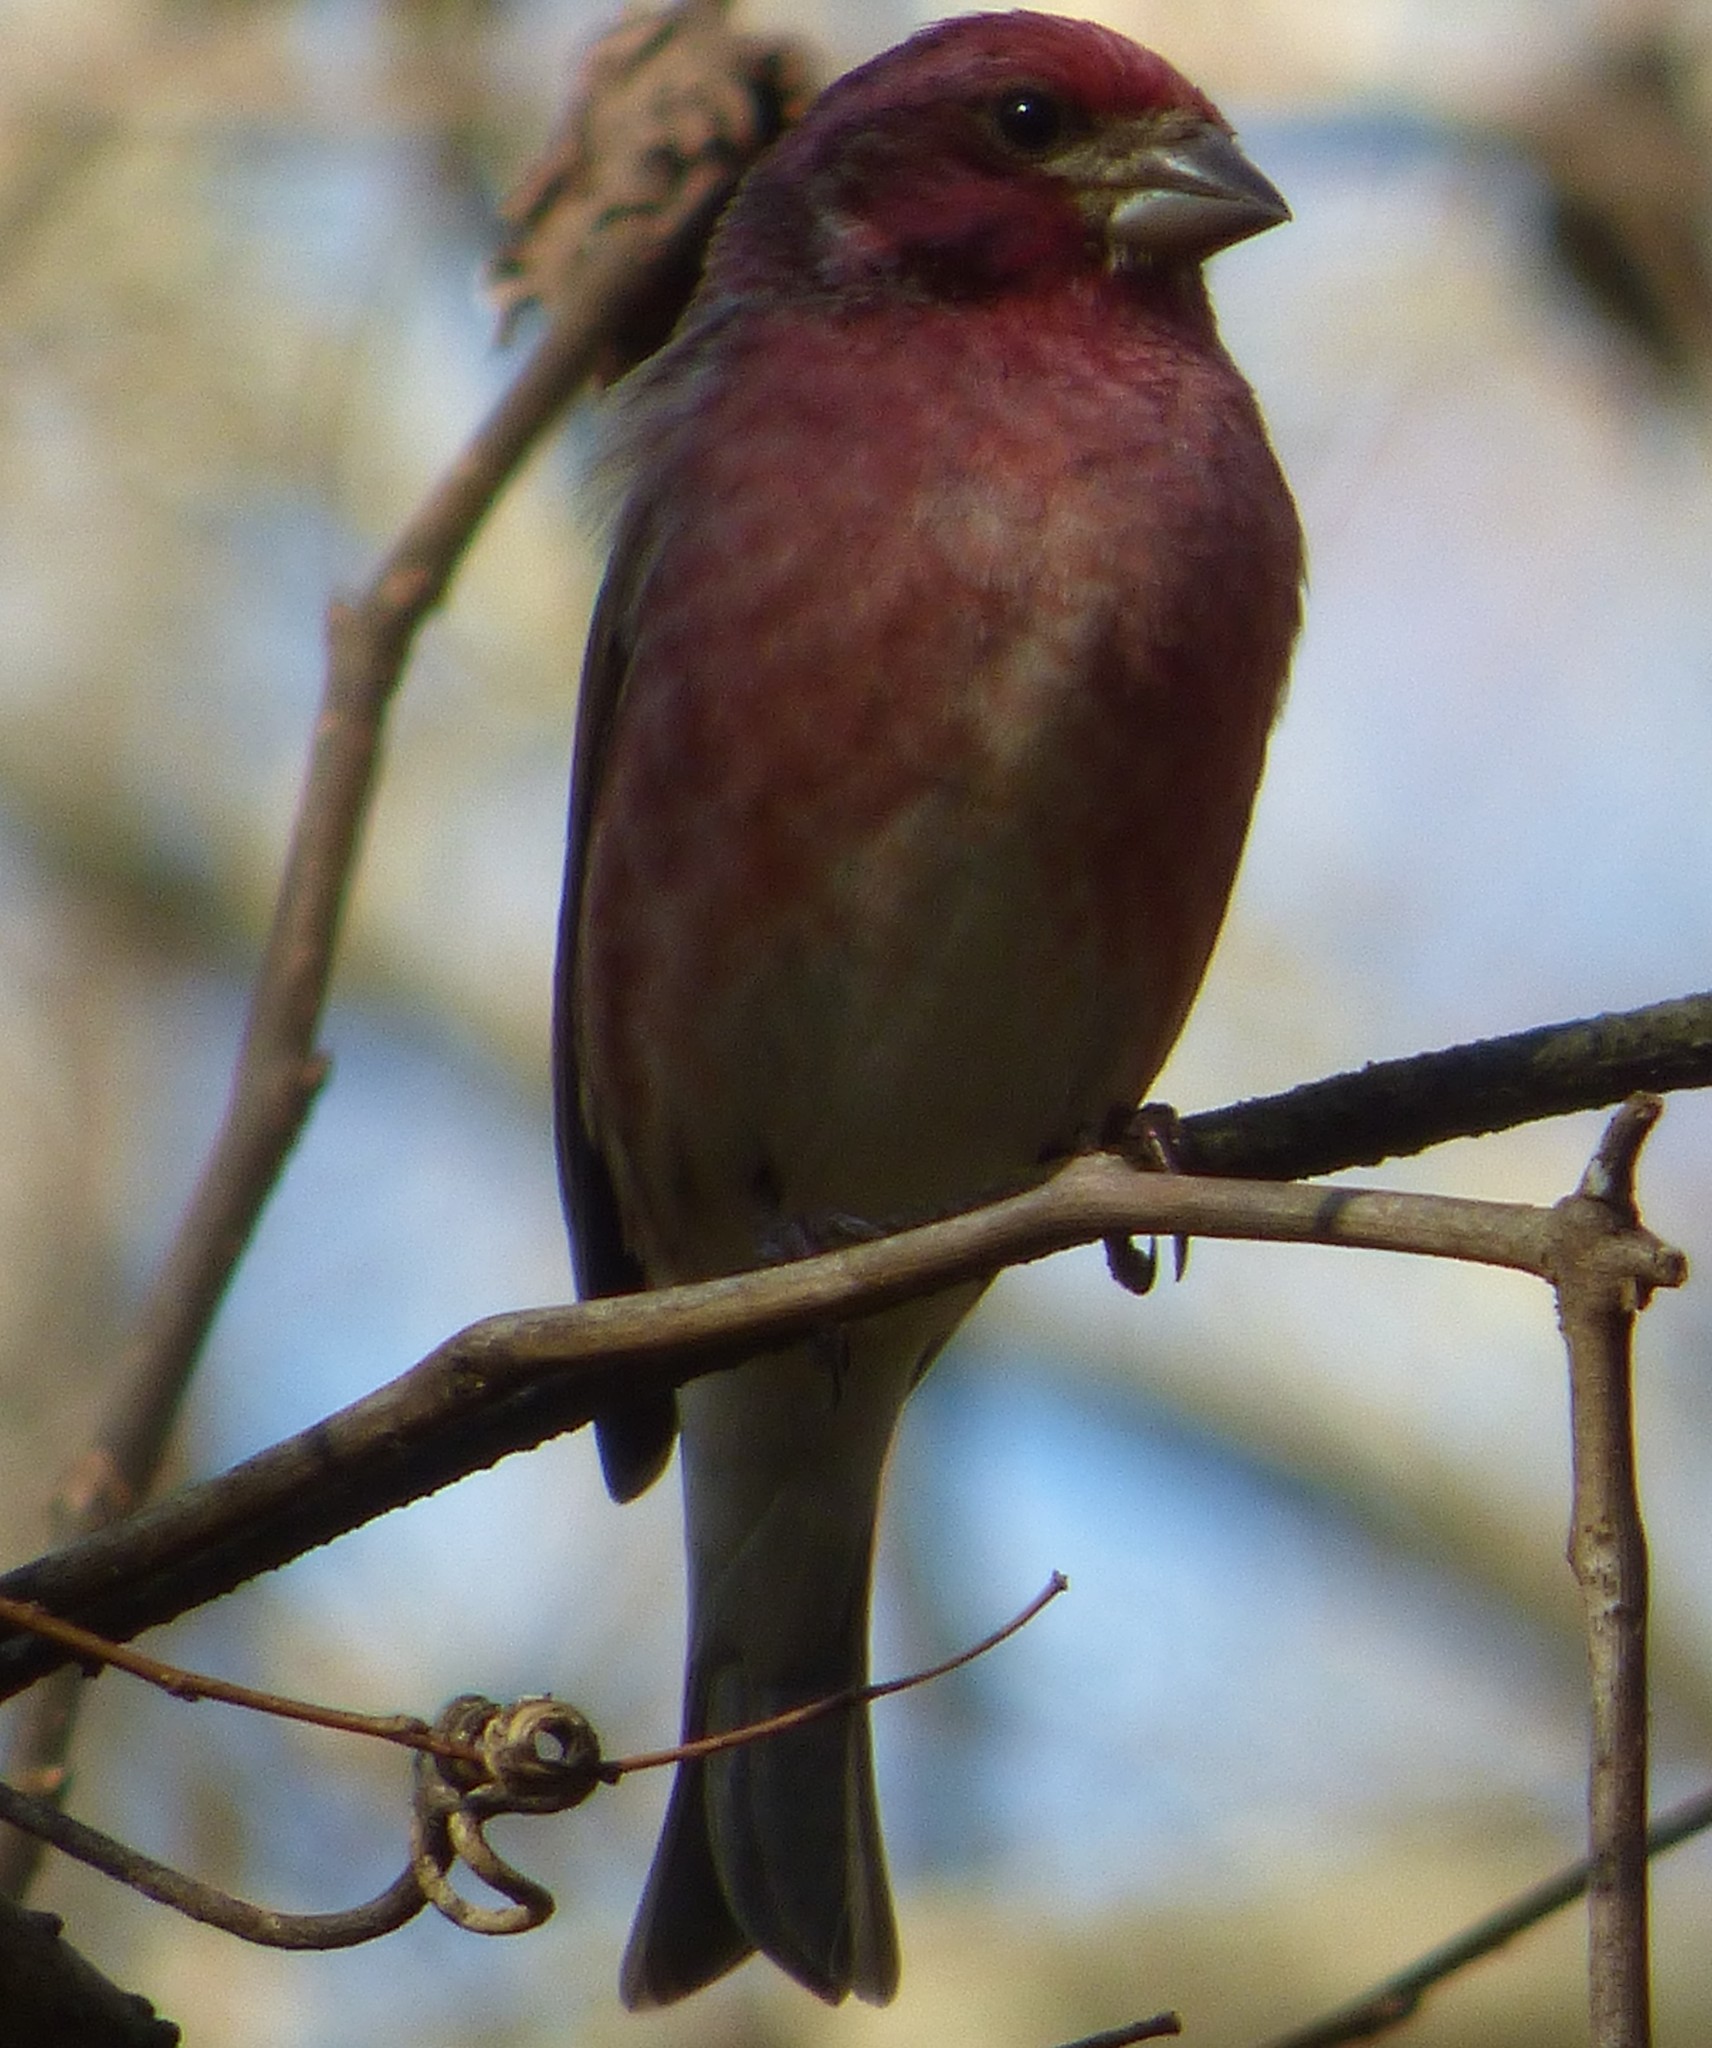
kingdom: Animalia
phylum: Chordata
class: Aves
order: Passeriformes
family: Fringillidae
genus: Haemorhous
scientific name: Haemorhous purpureus
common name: Purple finch
